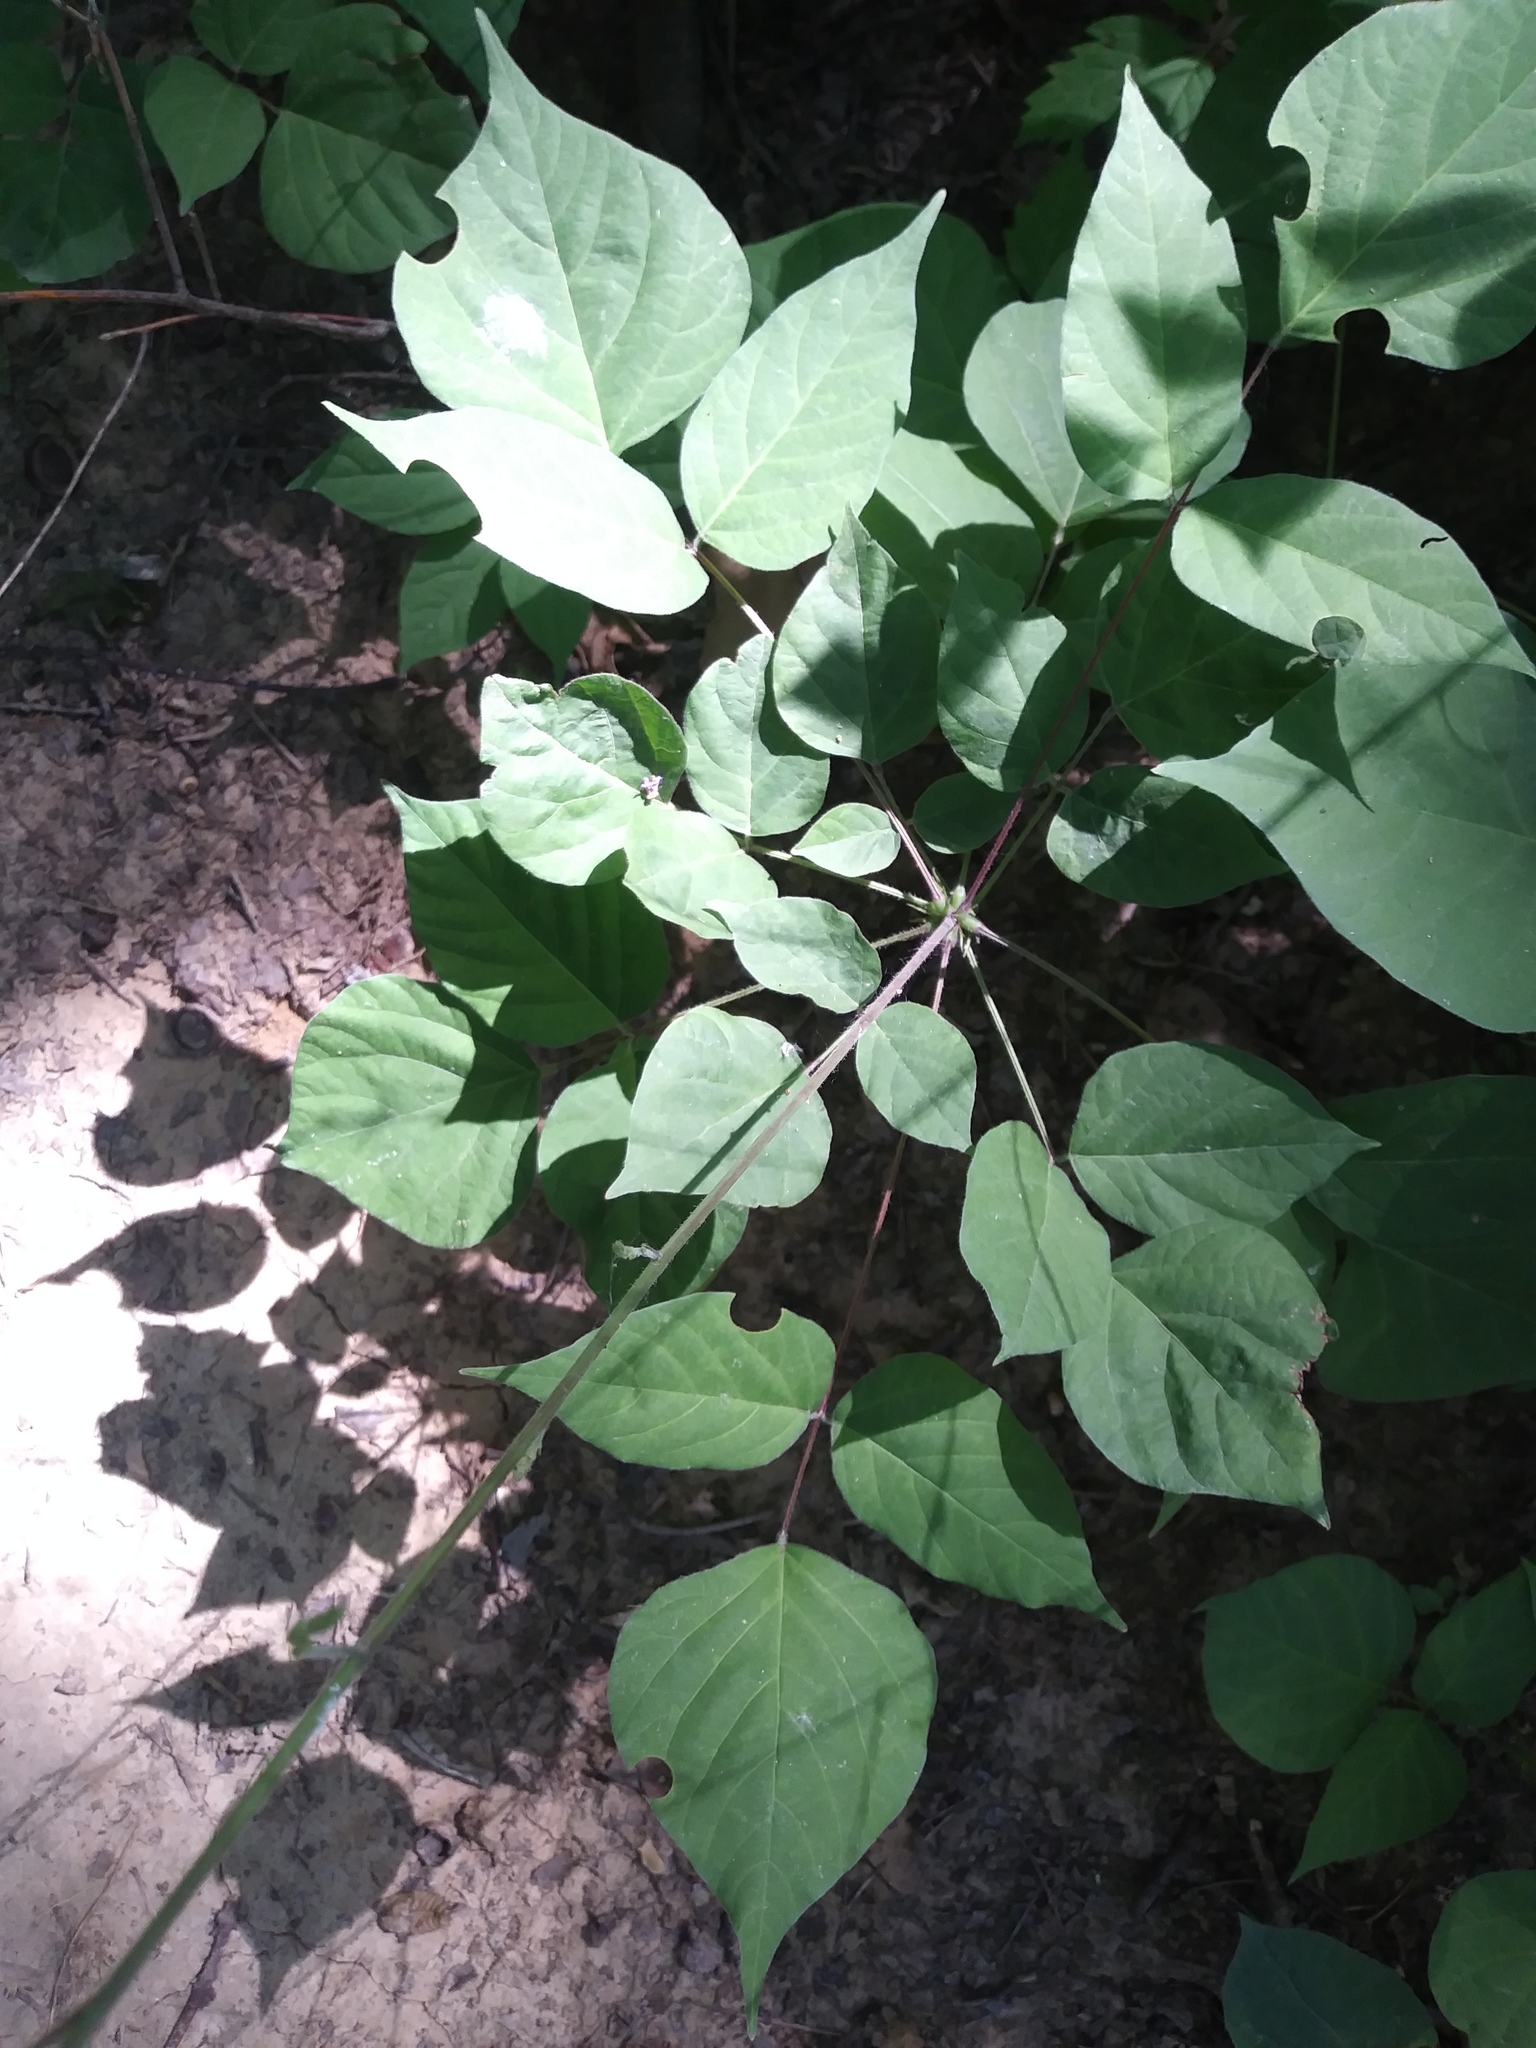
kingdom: Plantae
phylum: Tracheophyta
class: Magnoliopsida
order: Fabales
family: Fabaceae
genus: Hylodesmum
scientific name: Hylodesmum glutinosum
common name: Clustered-leaved tick-trefoil
